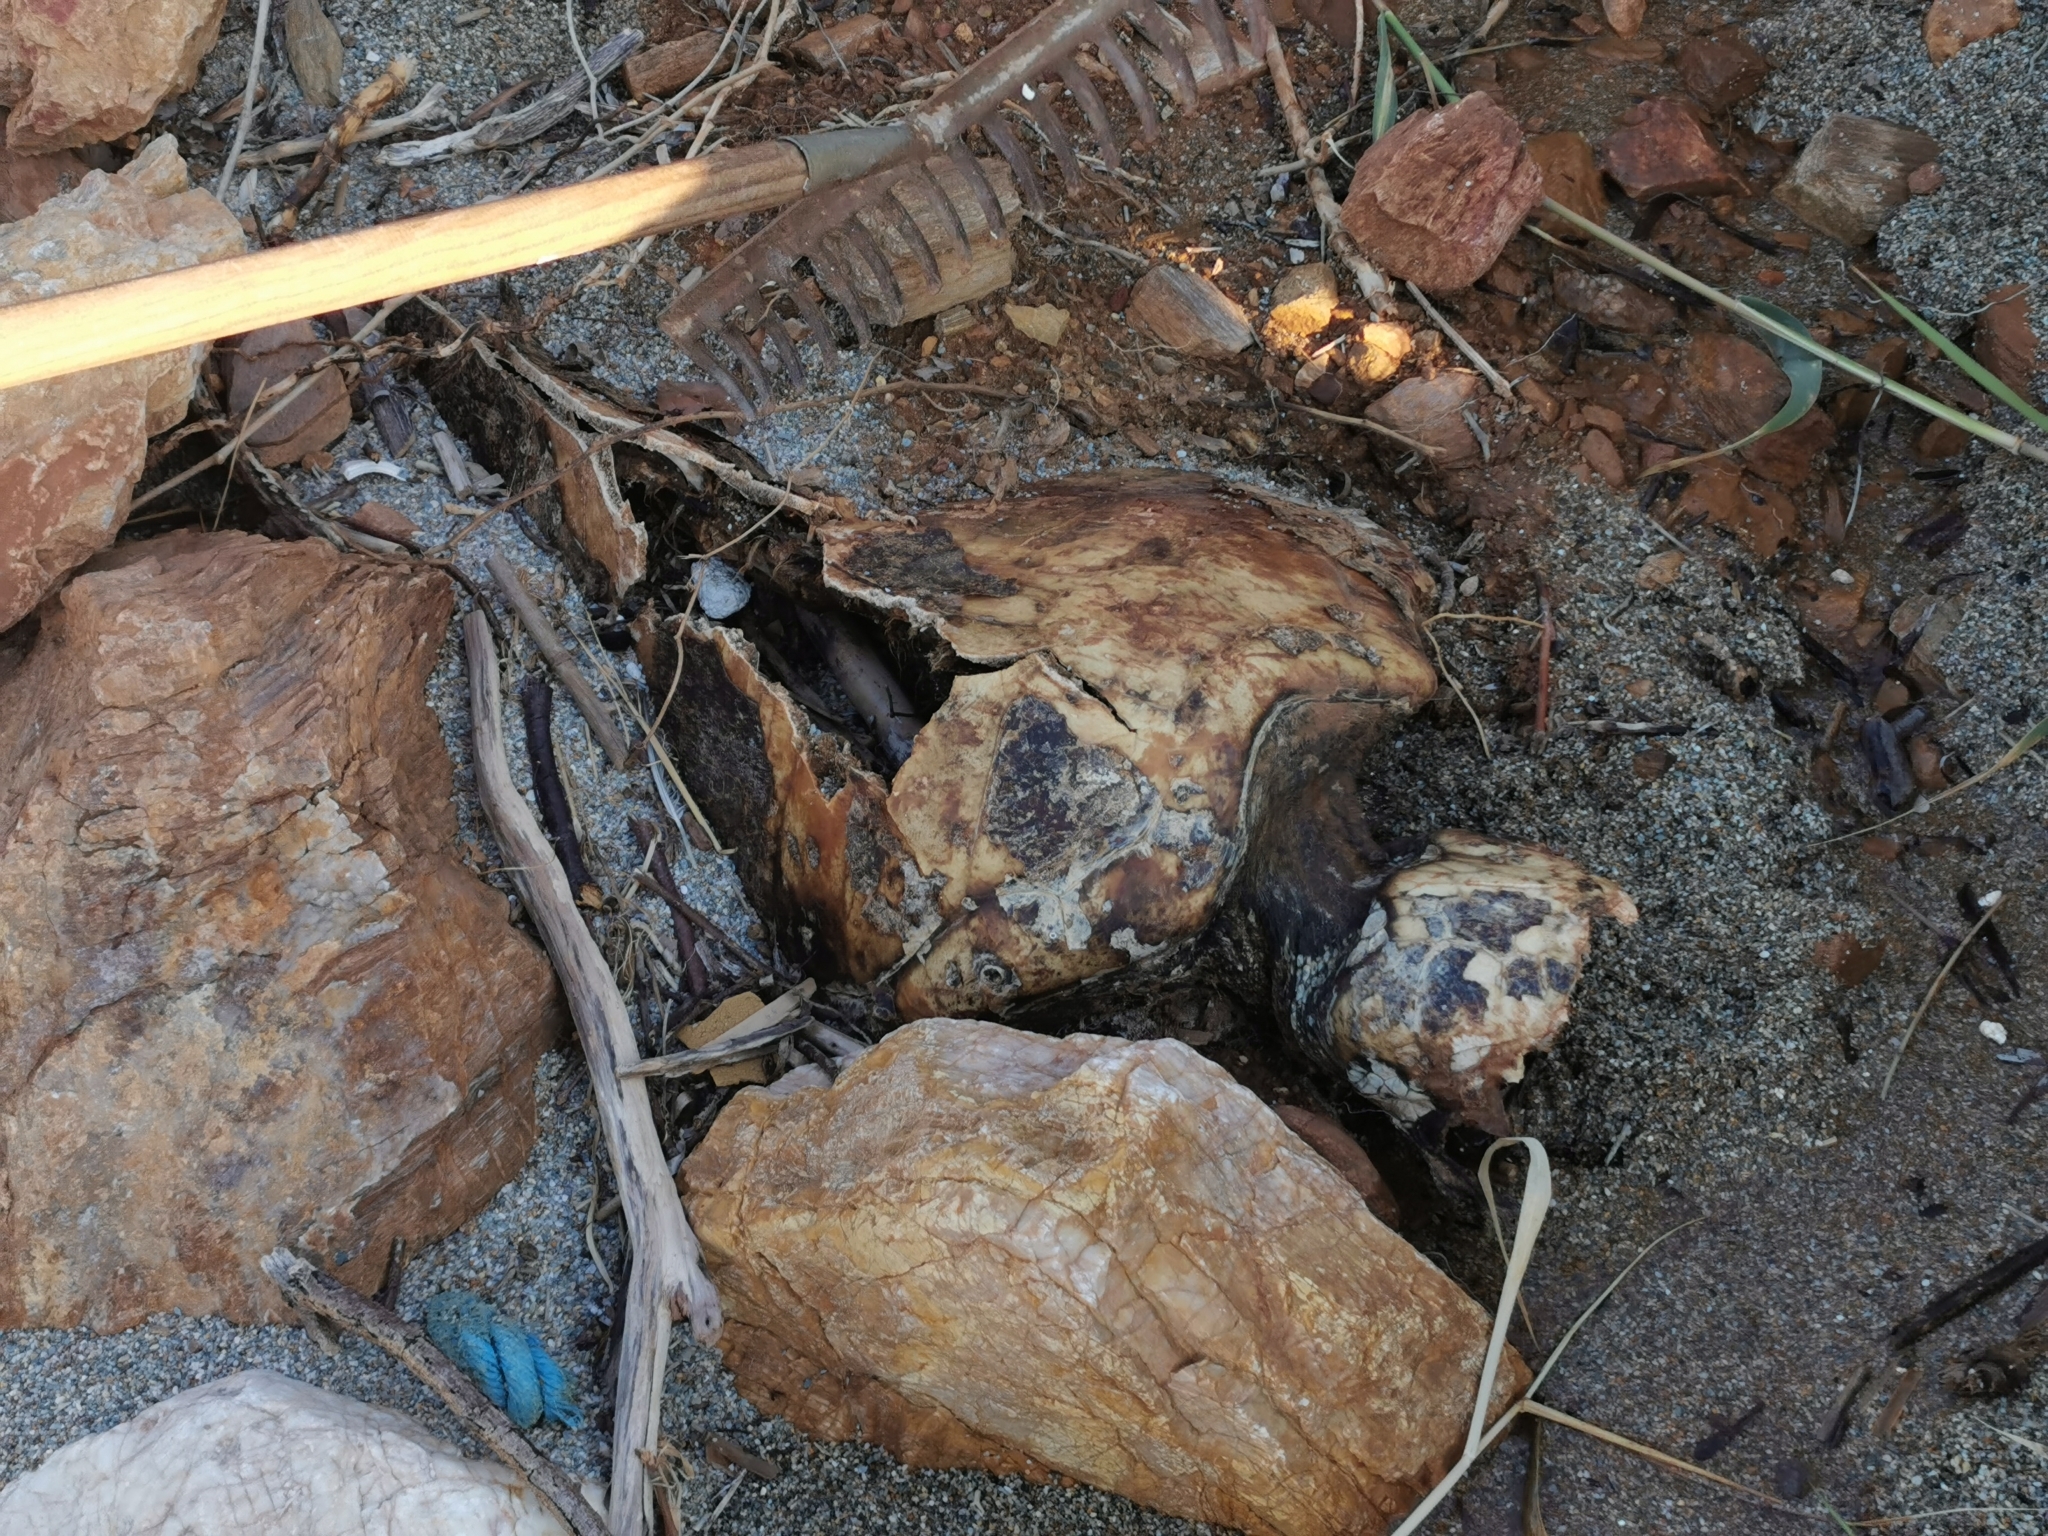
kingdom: Animalia
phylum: Chordata
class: Testudines
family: Cheloniidae
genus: Caretta
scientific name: Caretta caretta
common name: Loggerhead sea turtle
